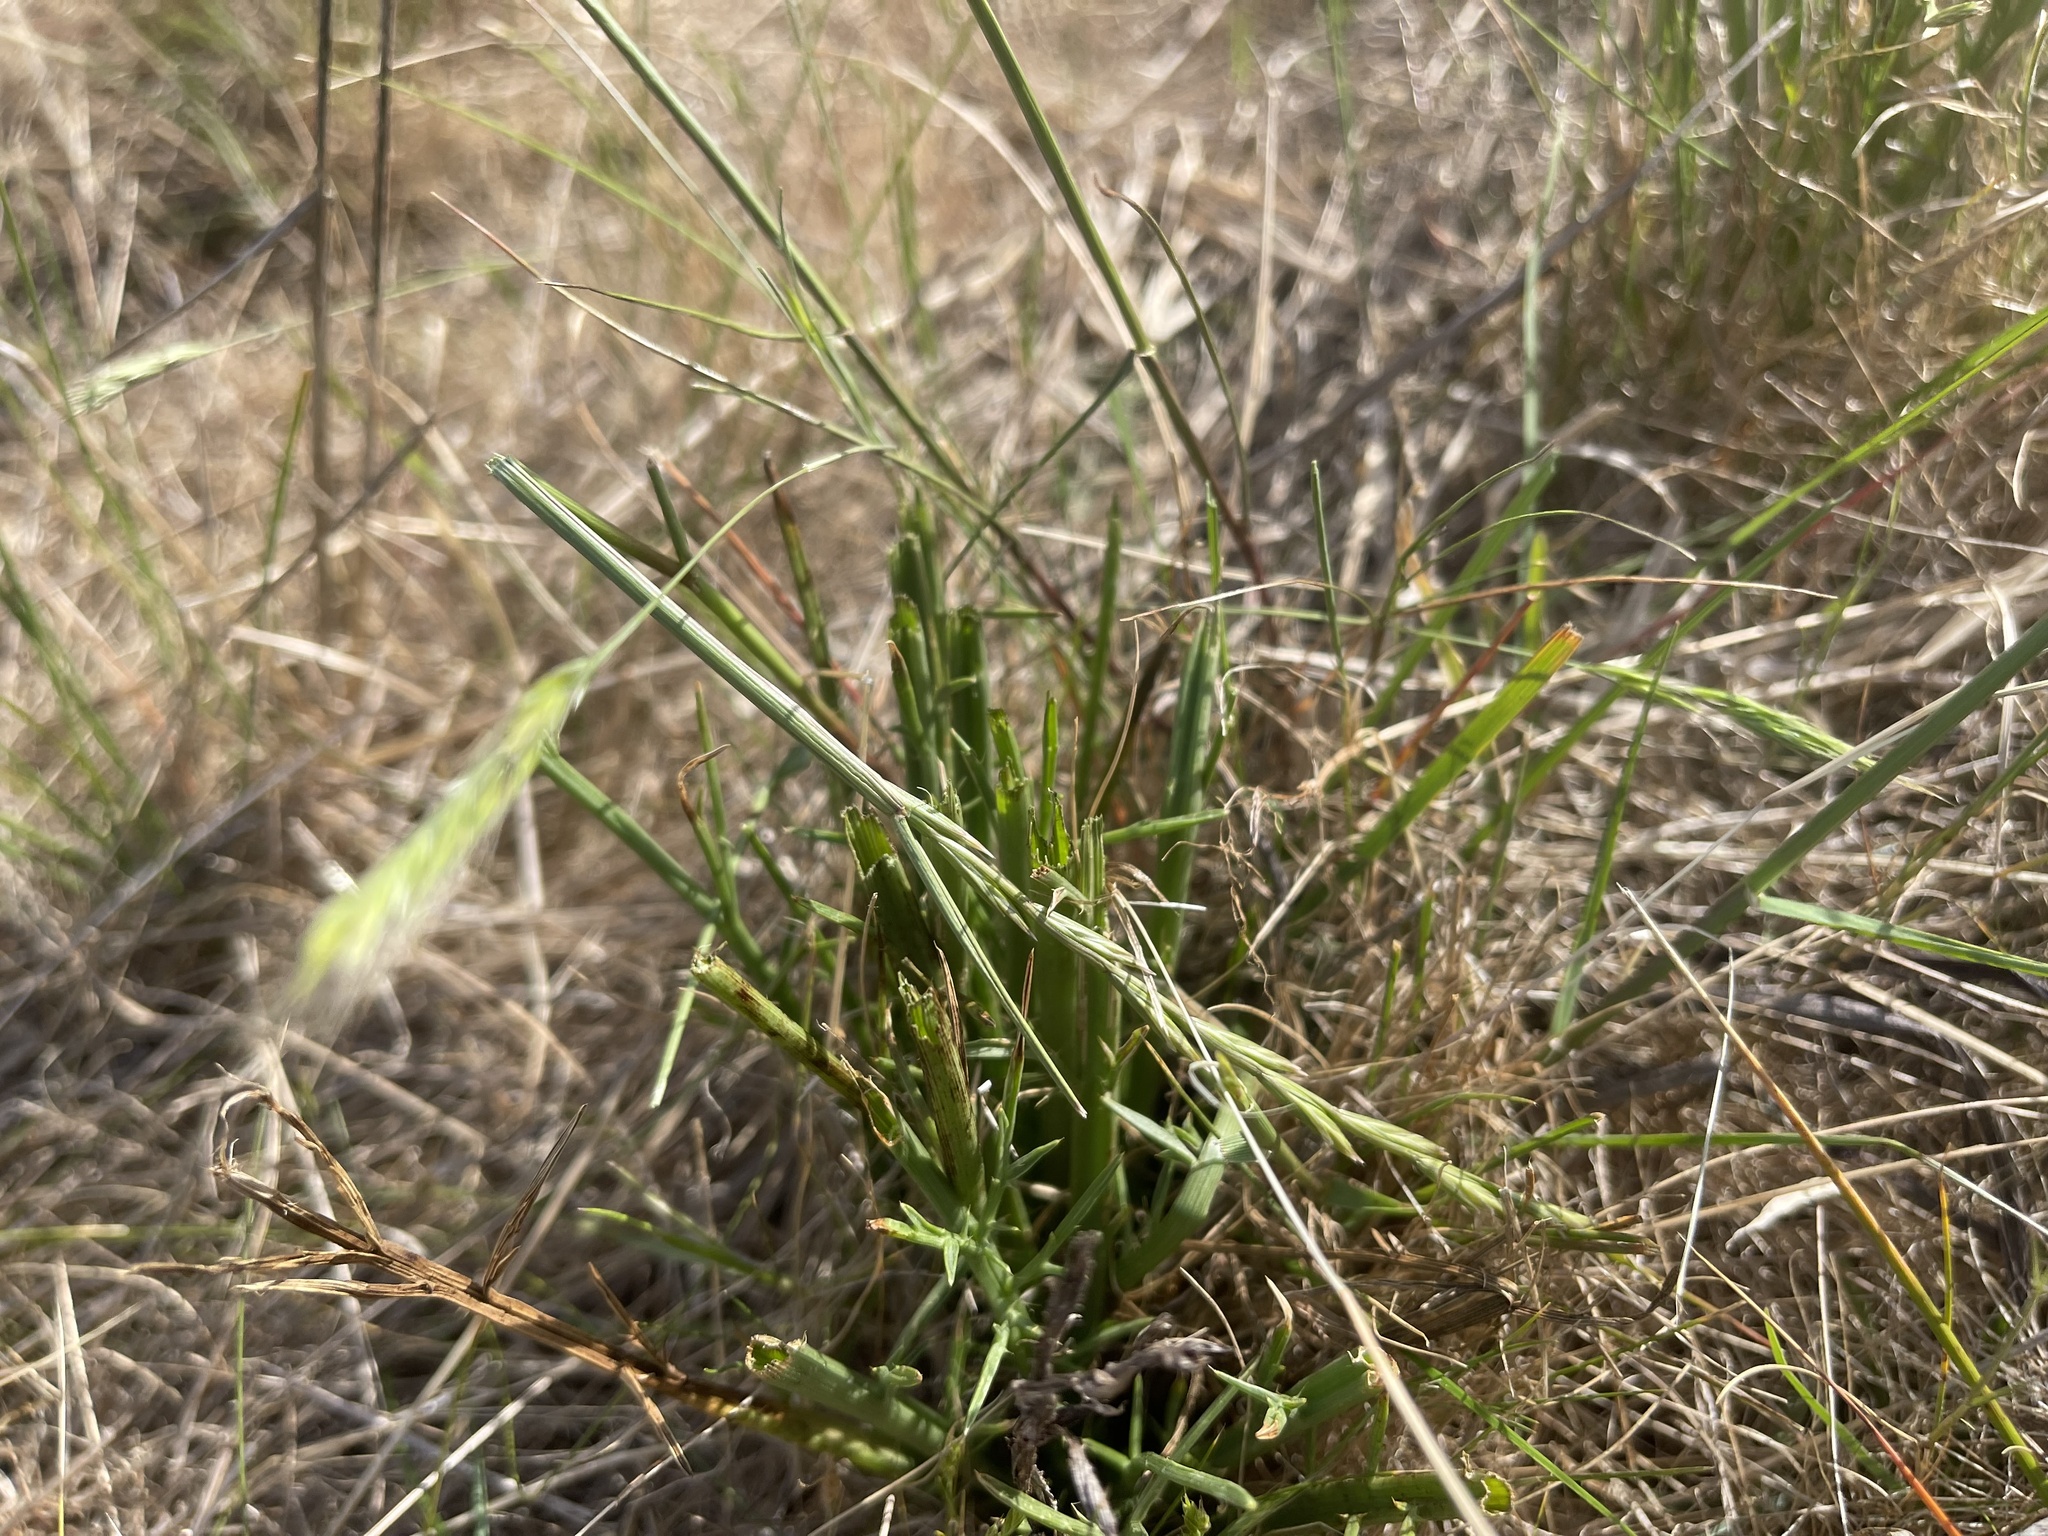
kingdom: Plantae
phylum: Tracheophyta
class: Magnoliopsida
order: Apiales
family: Apiaceae
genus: Eryngium
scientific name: Eryngium ovinum
